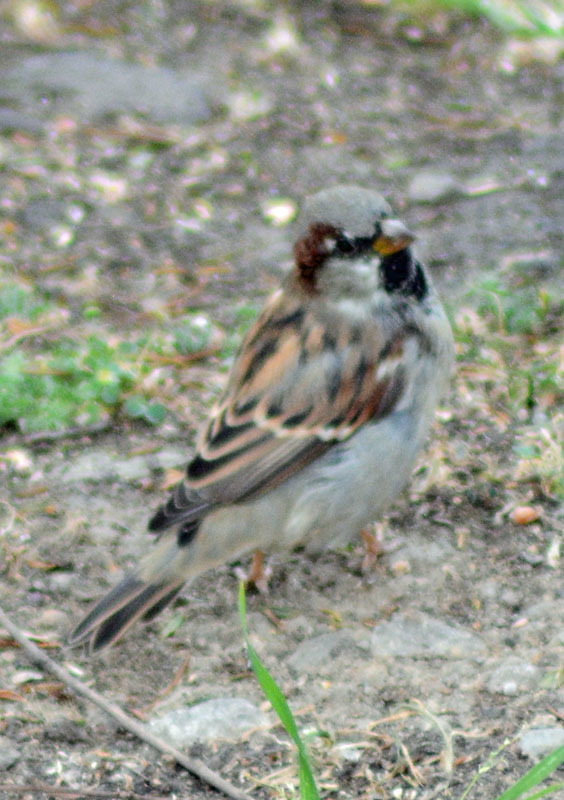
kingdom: Animalia
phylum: Chordata
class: Aves
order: Passeriformes
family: Passeridae
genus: Passer
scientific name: Passer domesticus
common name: House sparrow
